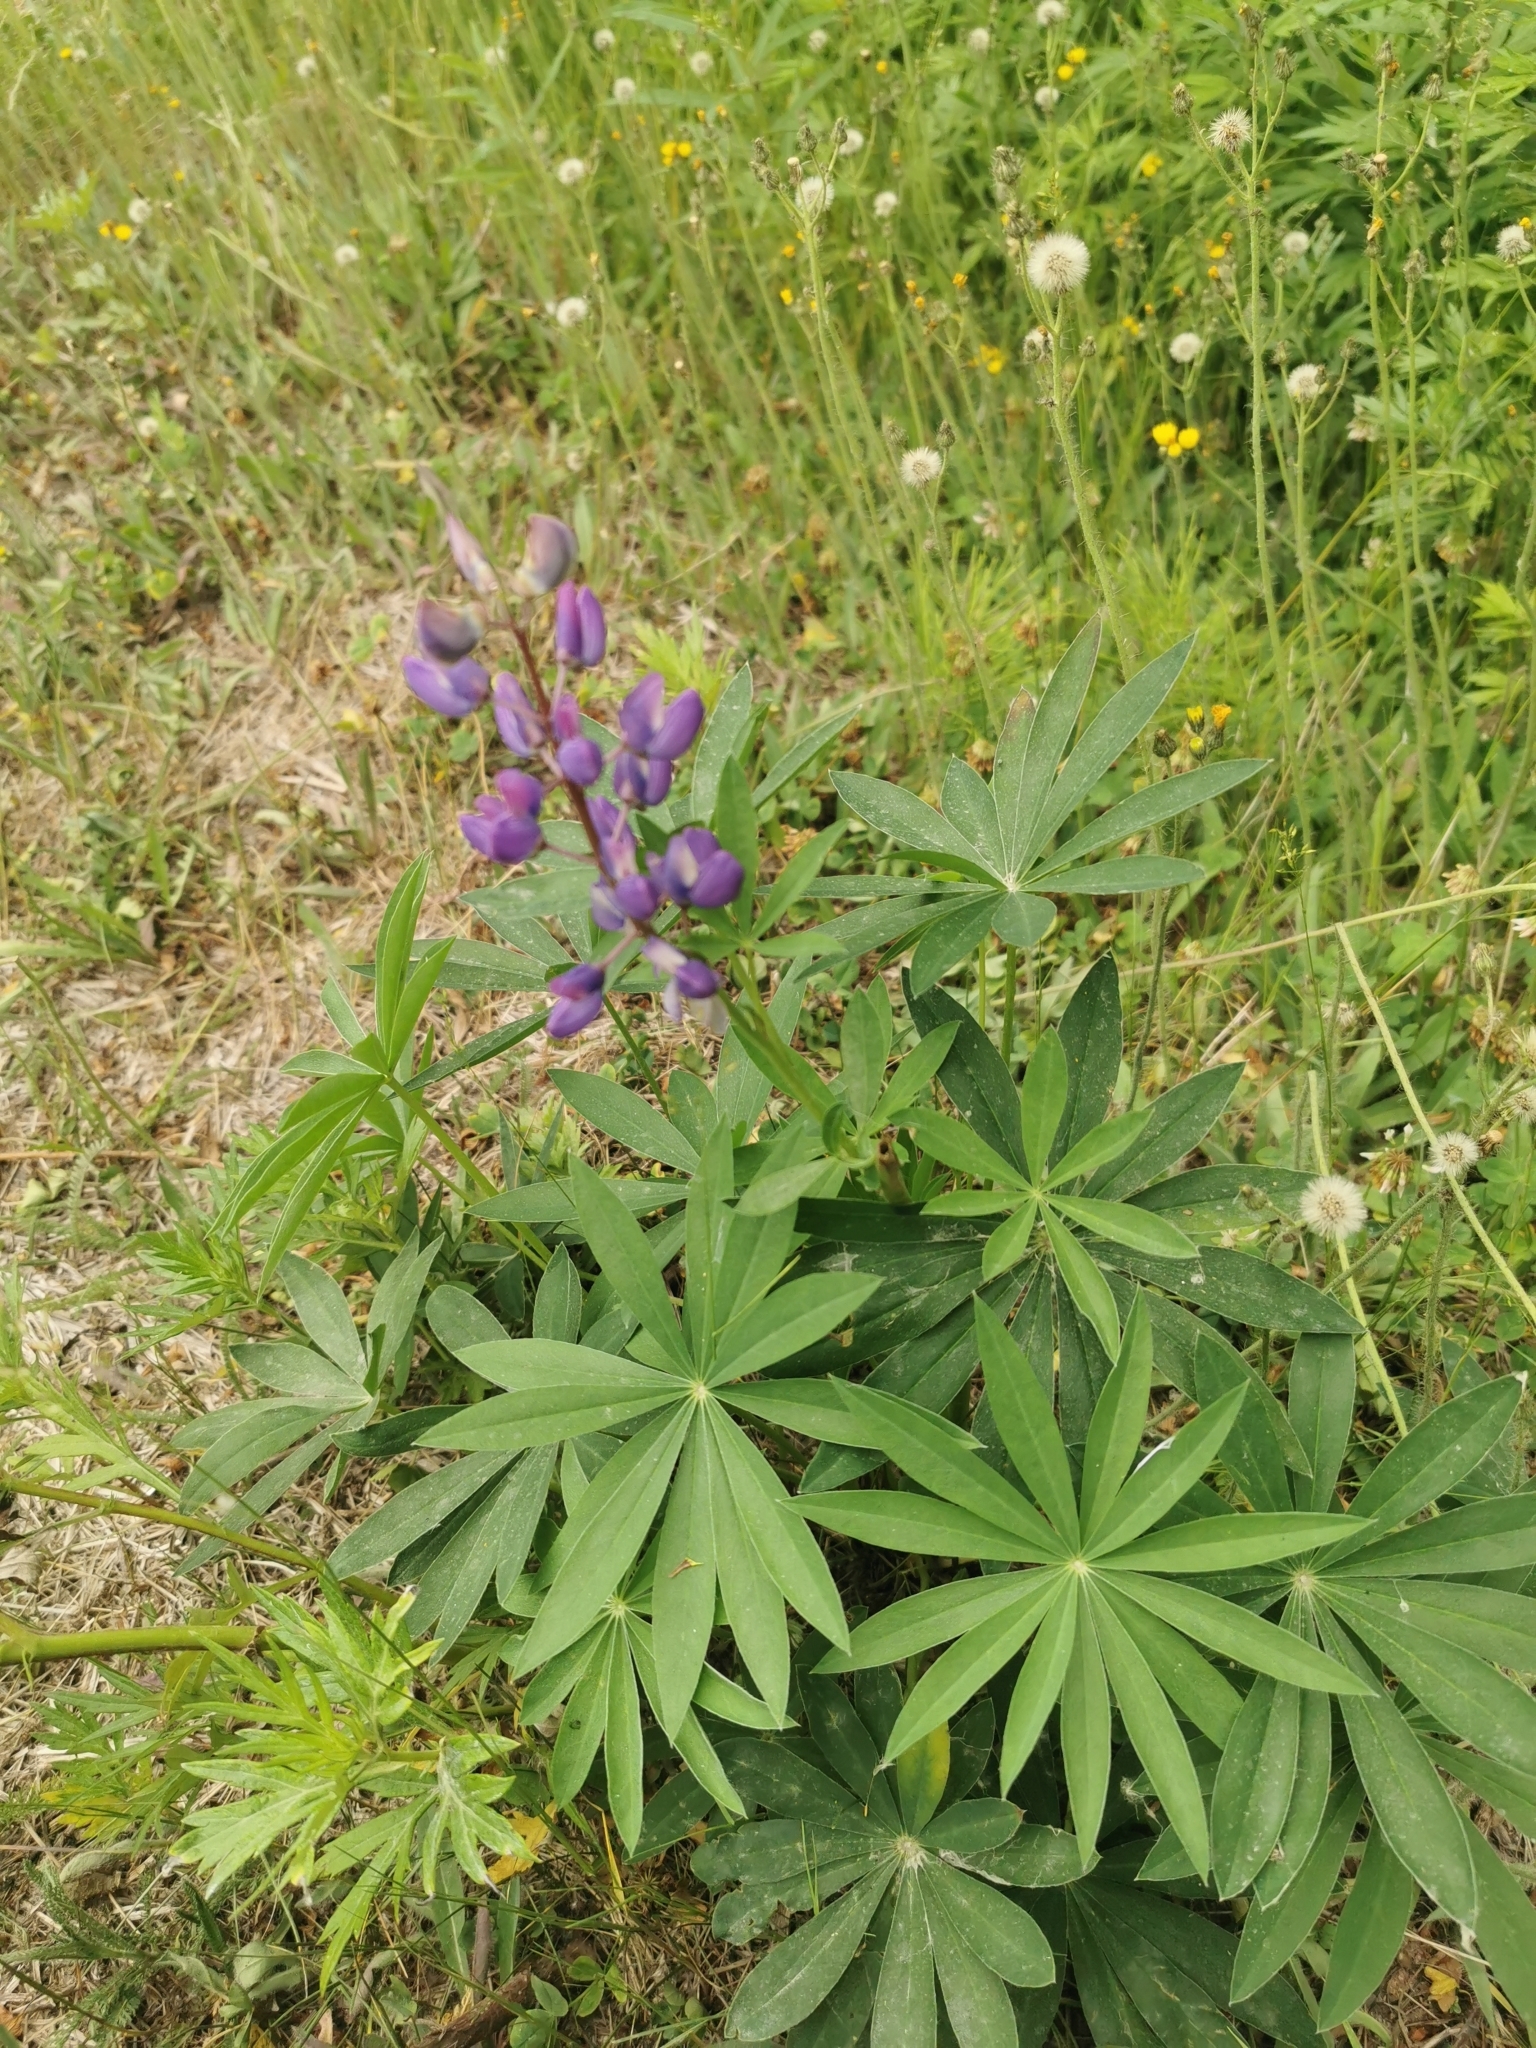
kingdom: Plantae
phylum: Tracheophyta
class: Magnoliopsida
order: Fabales
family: Fabaceae
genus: Lupinus
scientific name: Lupinus polyphyllus
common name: Garden lupin
